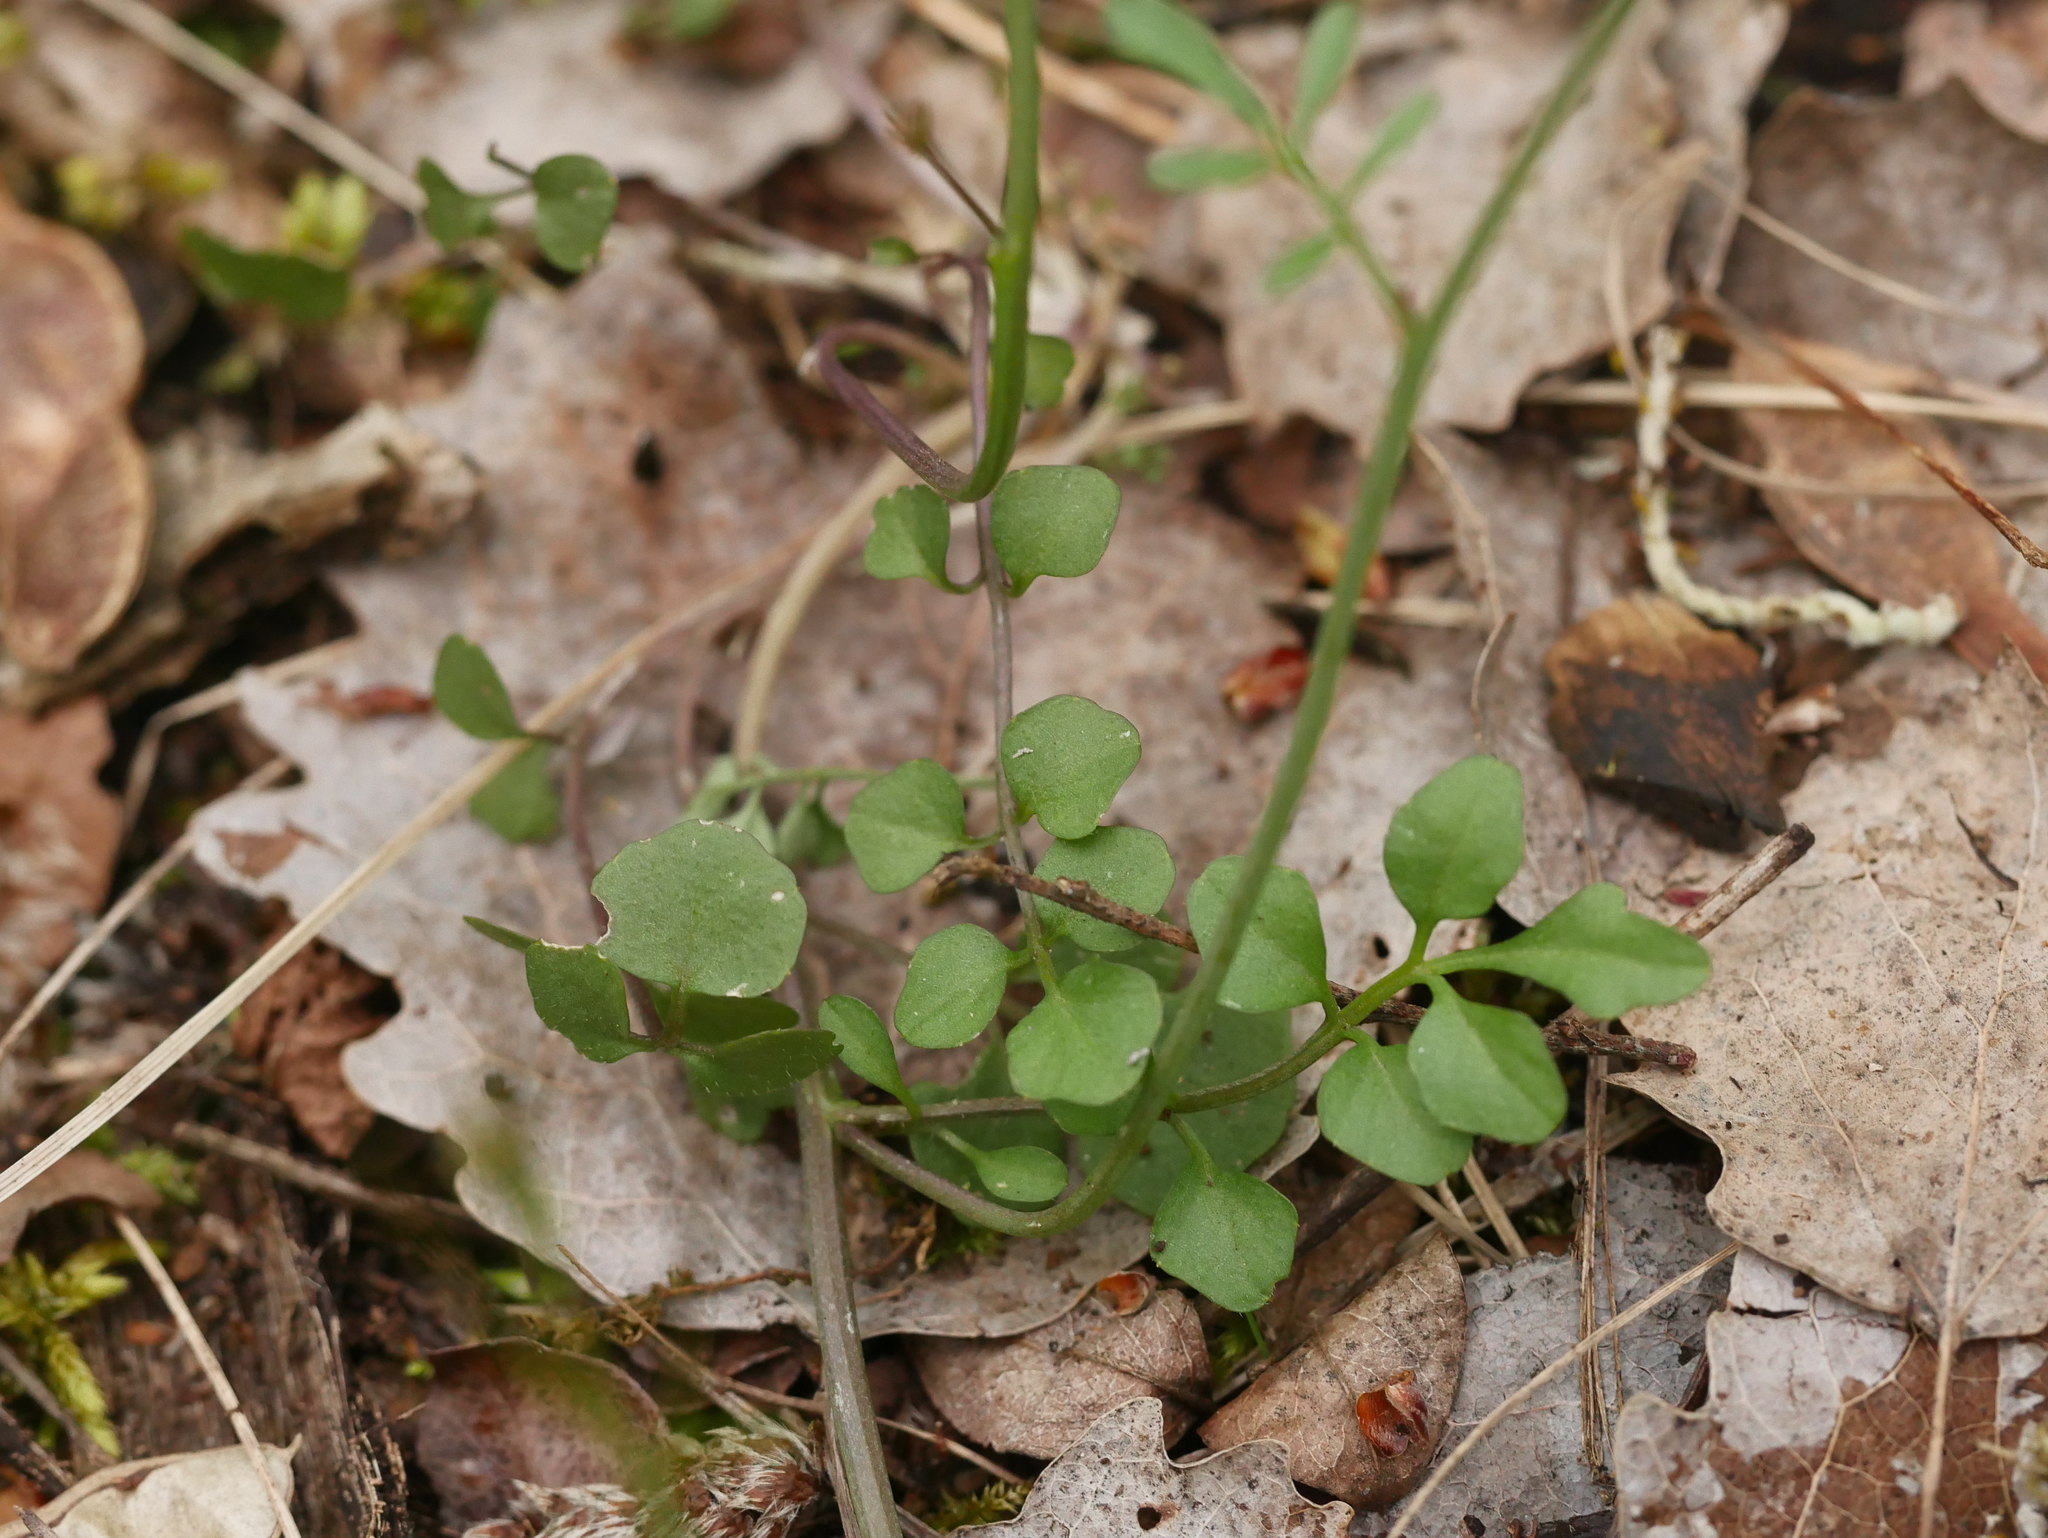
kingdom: Plantae
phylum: Tracheophyta
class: Magnoliopsida
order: Brassicales
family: Brassicaceae
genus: Cardamine
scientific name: Cardamine hirsuta
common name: Hairy bittercress
